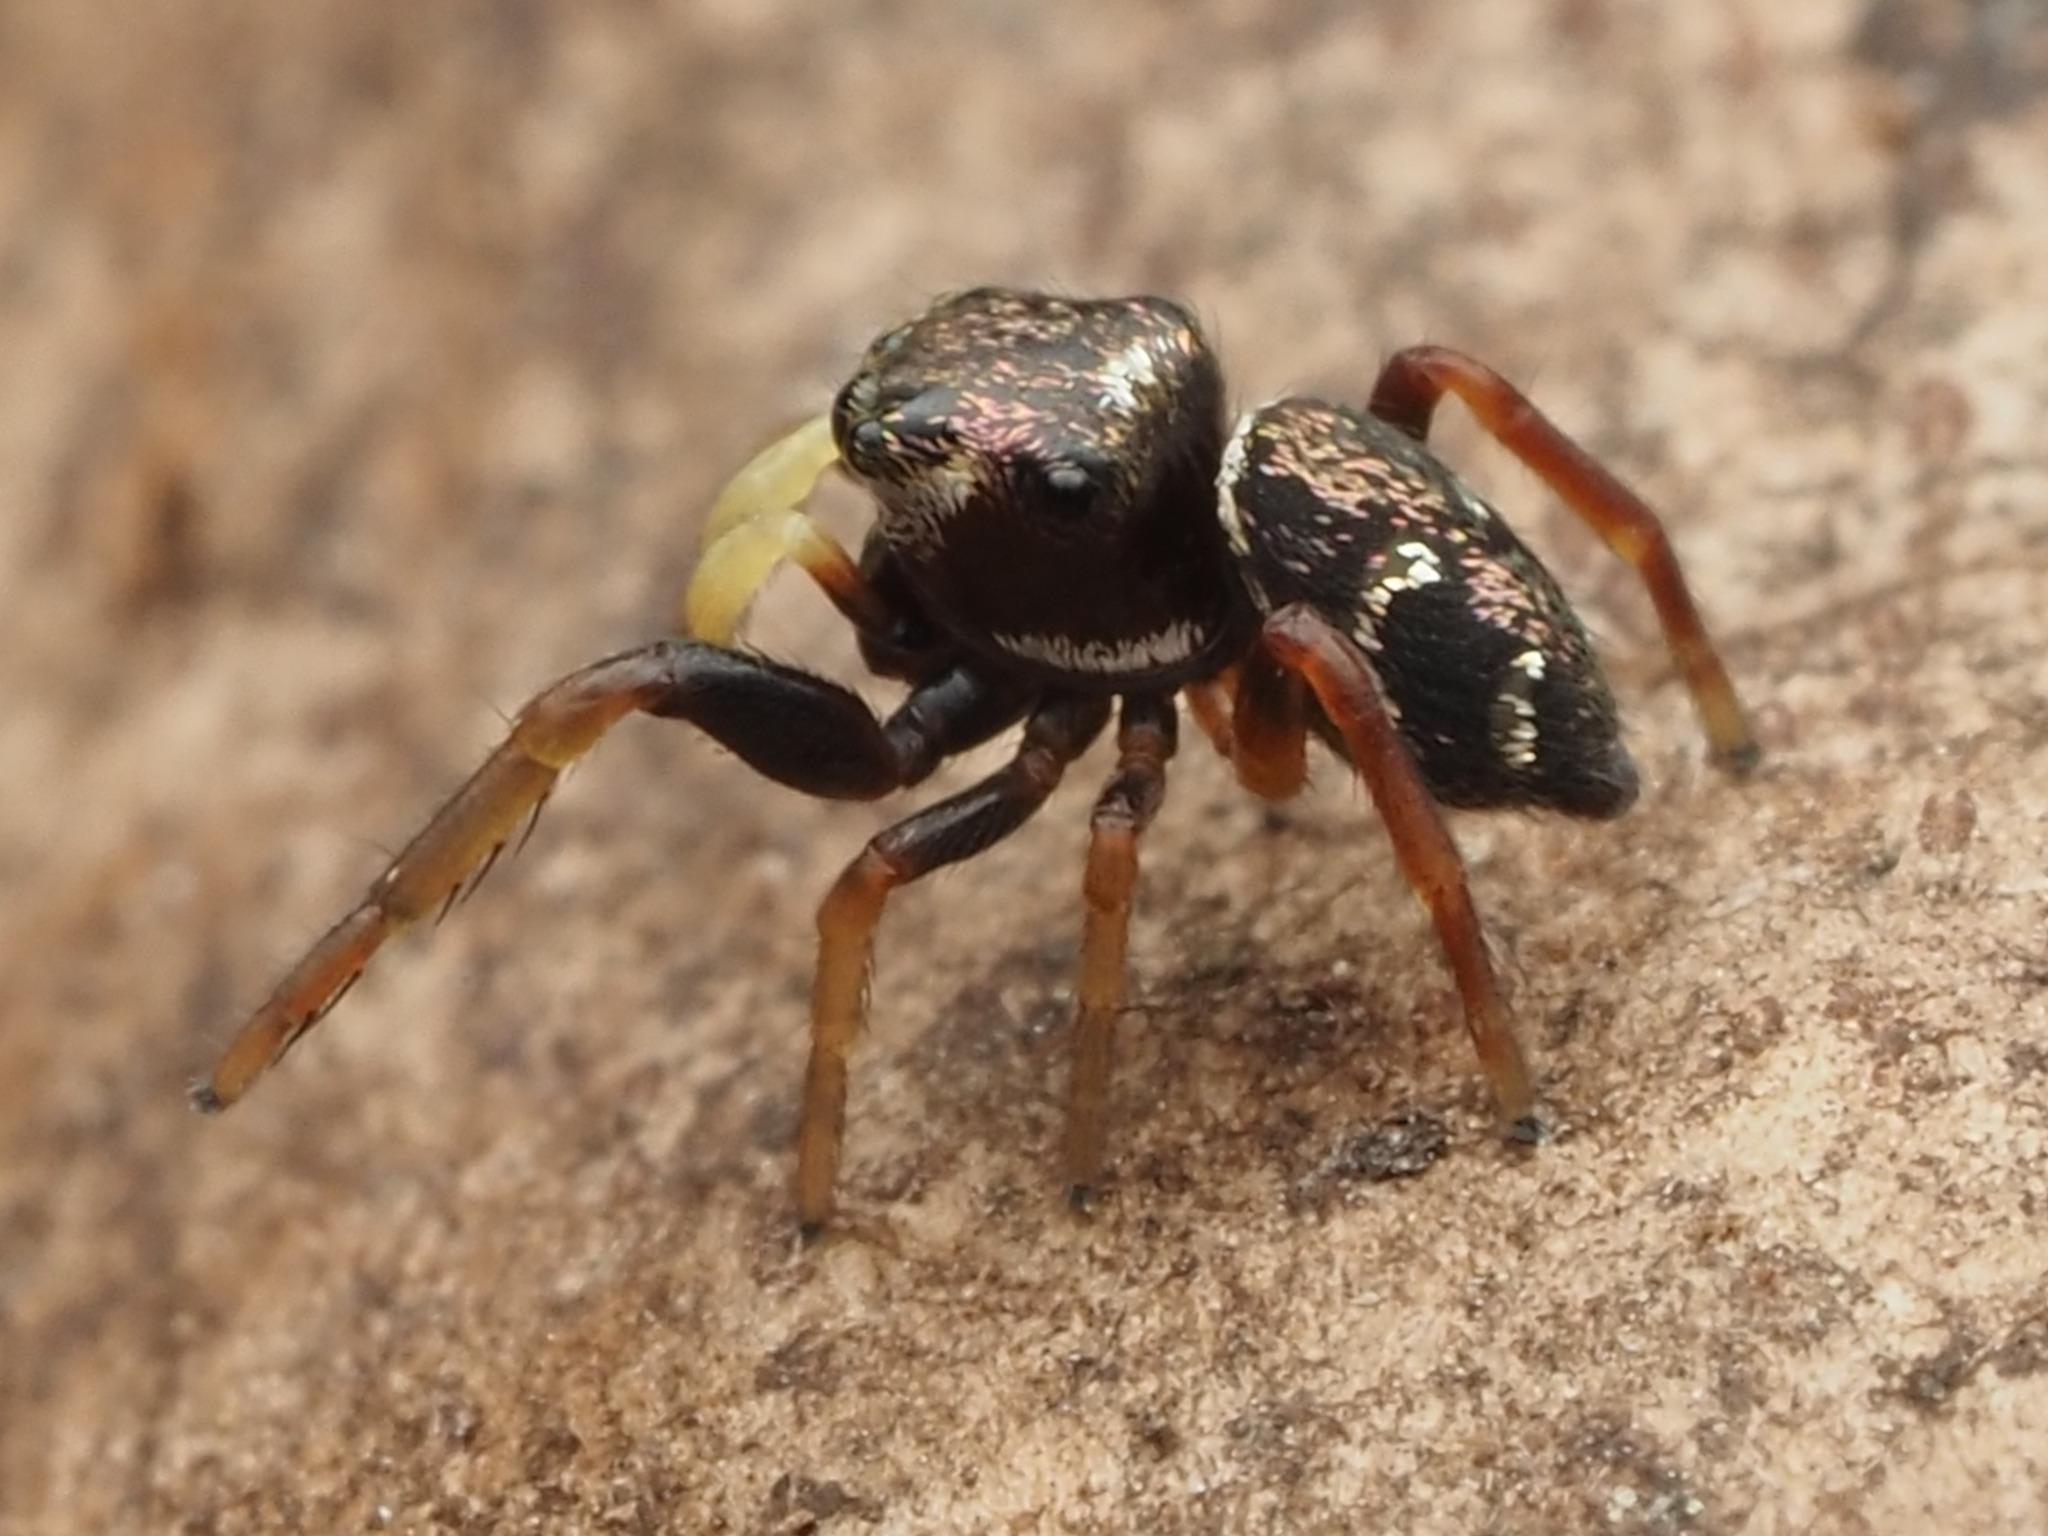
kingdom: Animalia
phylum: Arthropoda
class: Arachnida
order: Araneae
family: Salticidae
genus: Zygoballus
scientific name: Zygoballus sexpunctatus
